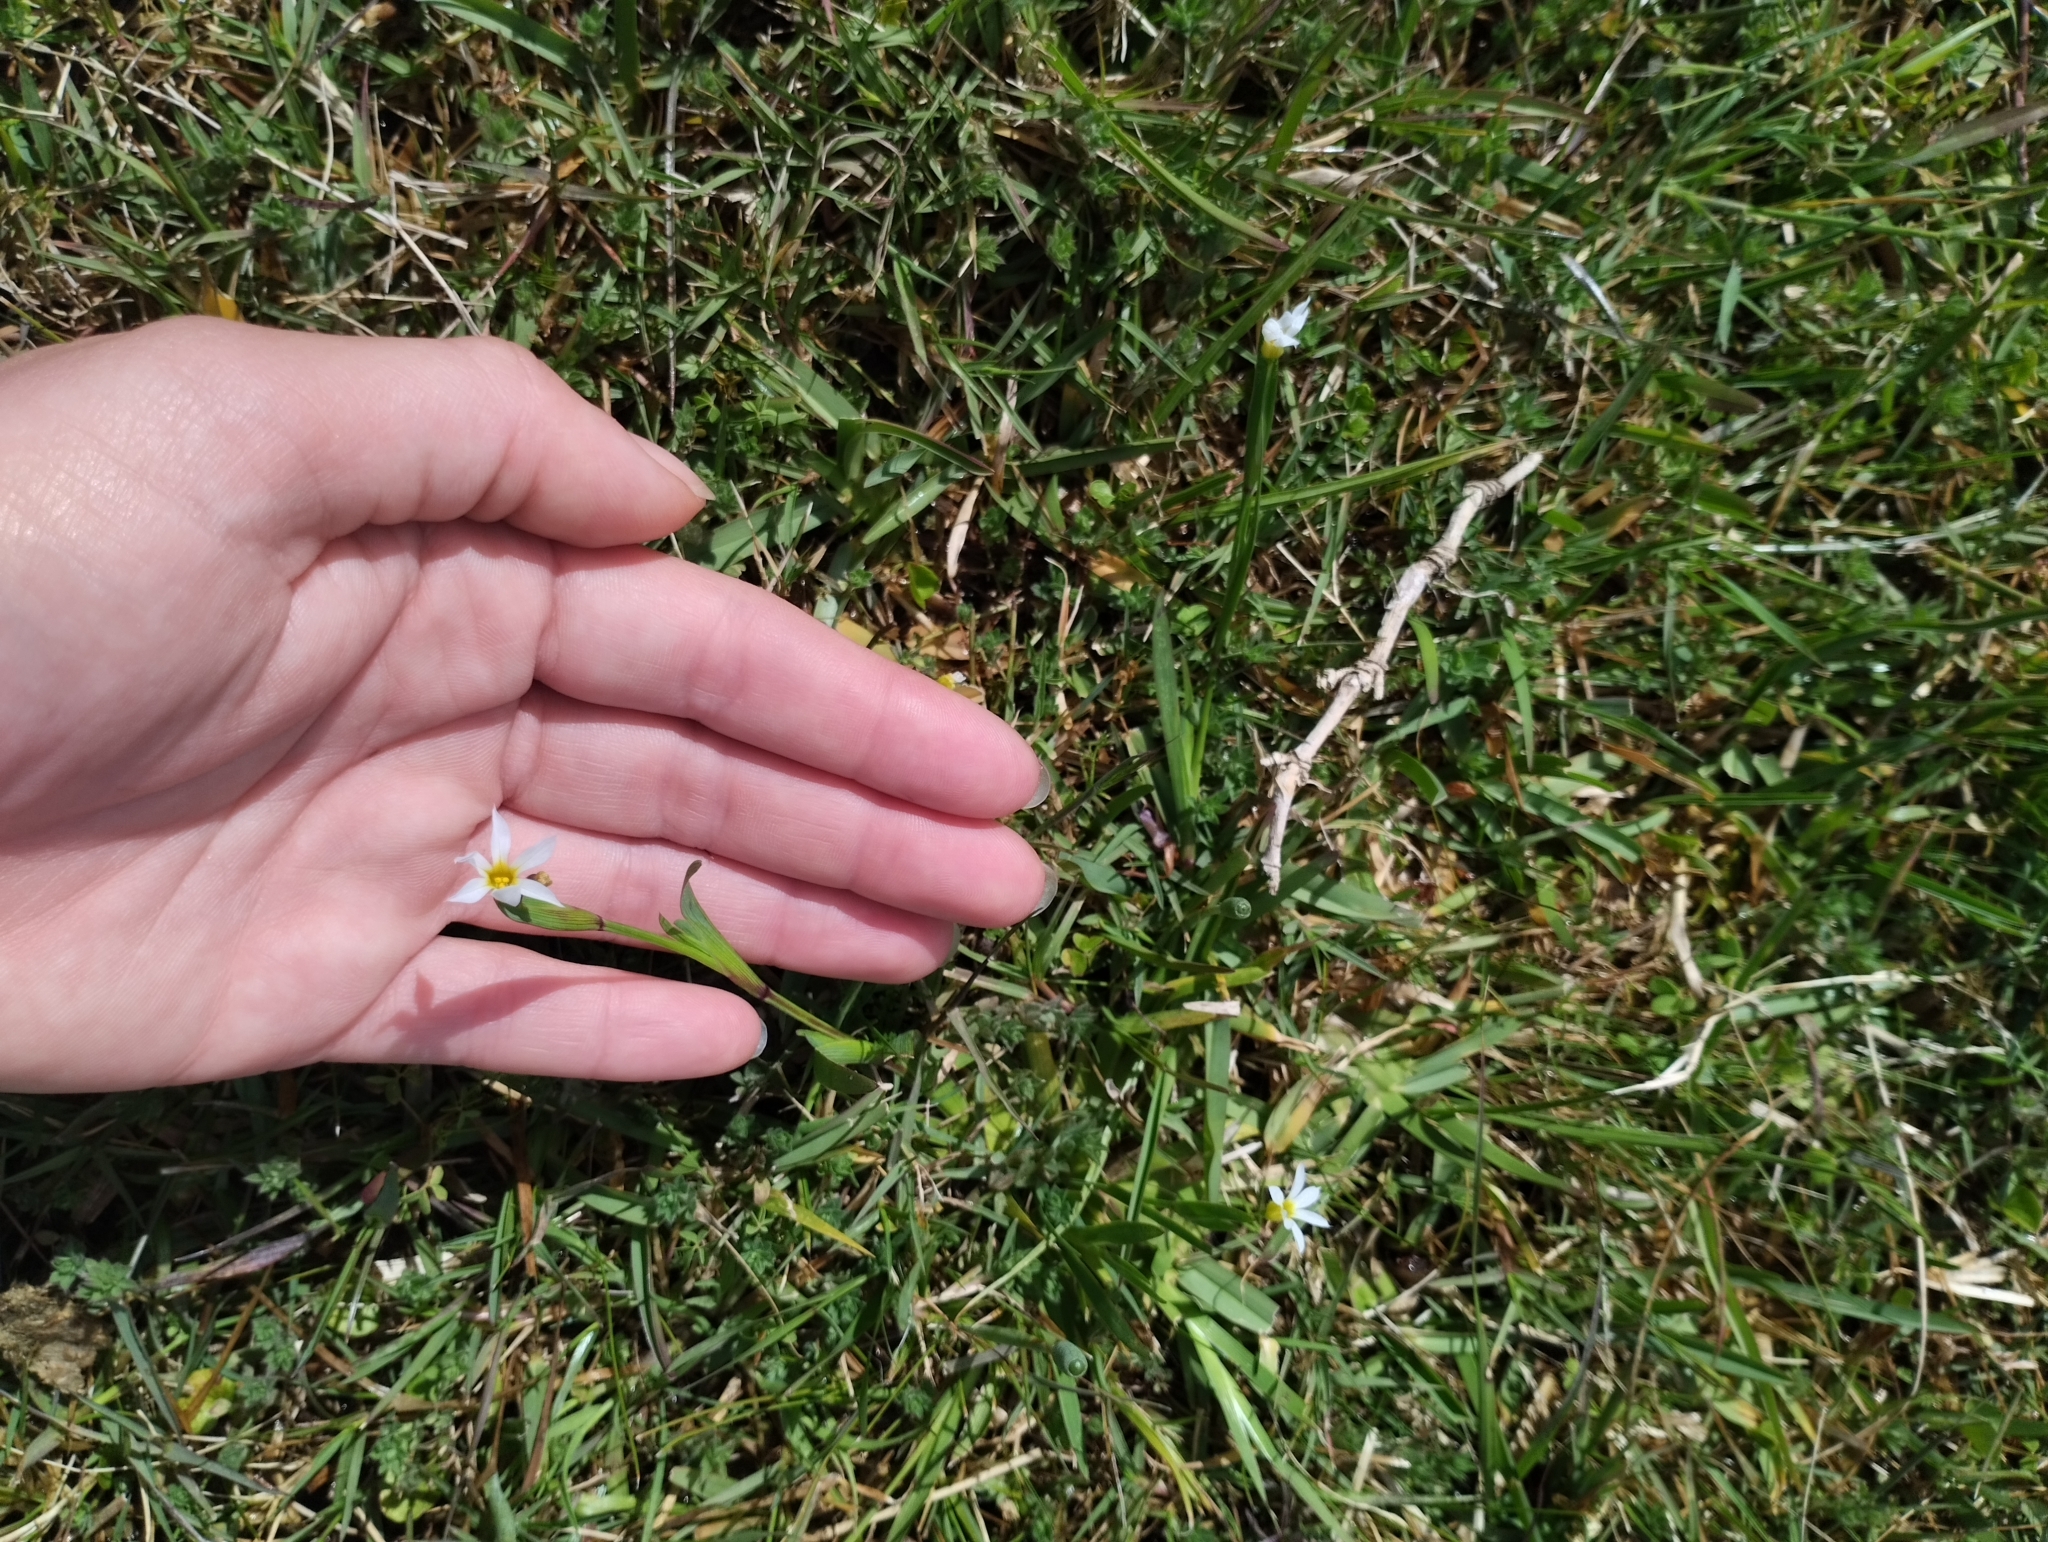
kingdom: Plantae
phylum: Tracheophyta
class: Liliopsida
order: Asparagales
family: Iridaceae
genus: Sisyrinchium
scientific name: Sisyrinchium micranthum
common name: Bermuda pigroot
